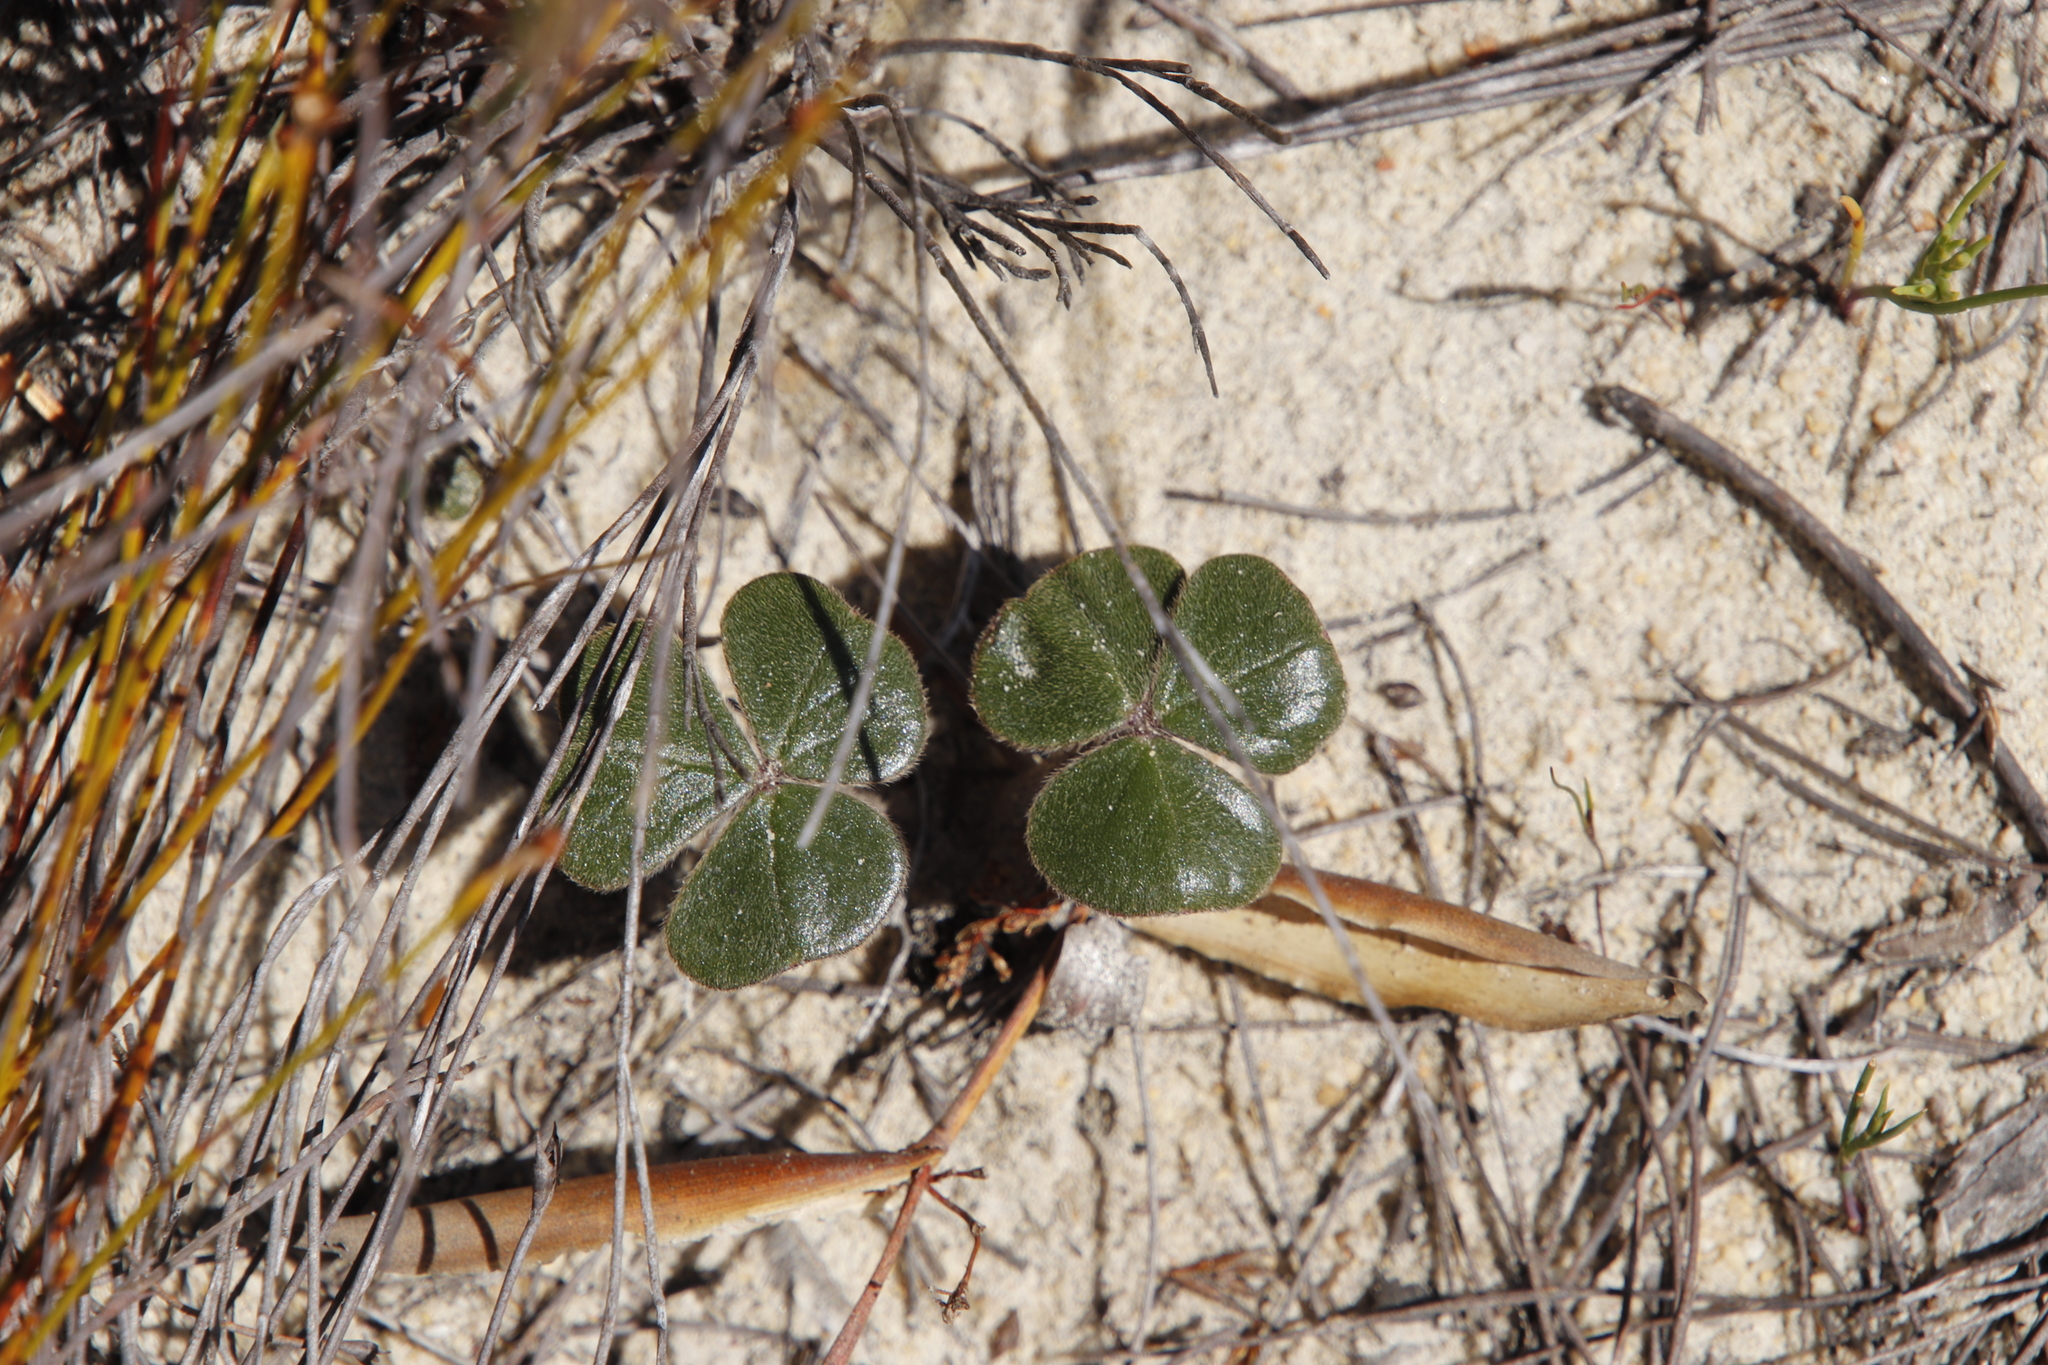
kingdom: Plantae
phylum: Tracheophyta
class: Magnoliopsida
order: Oxalidales
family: Oxalidaceae
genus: Oxalis
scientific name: Oxalis truncatula
